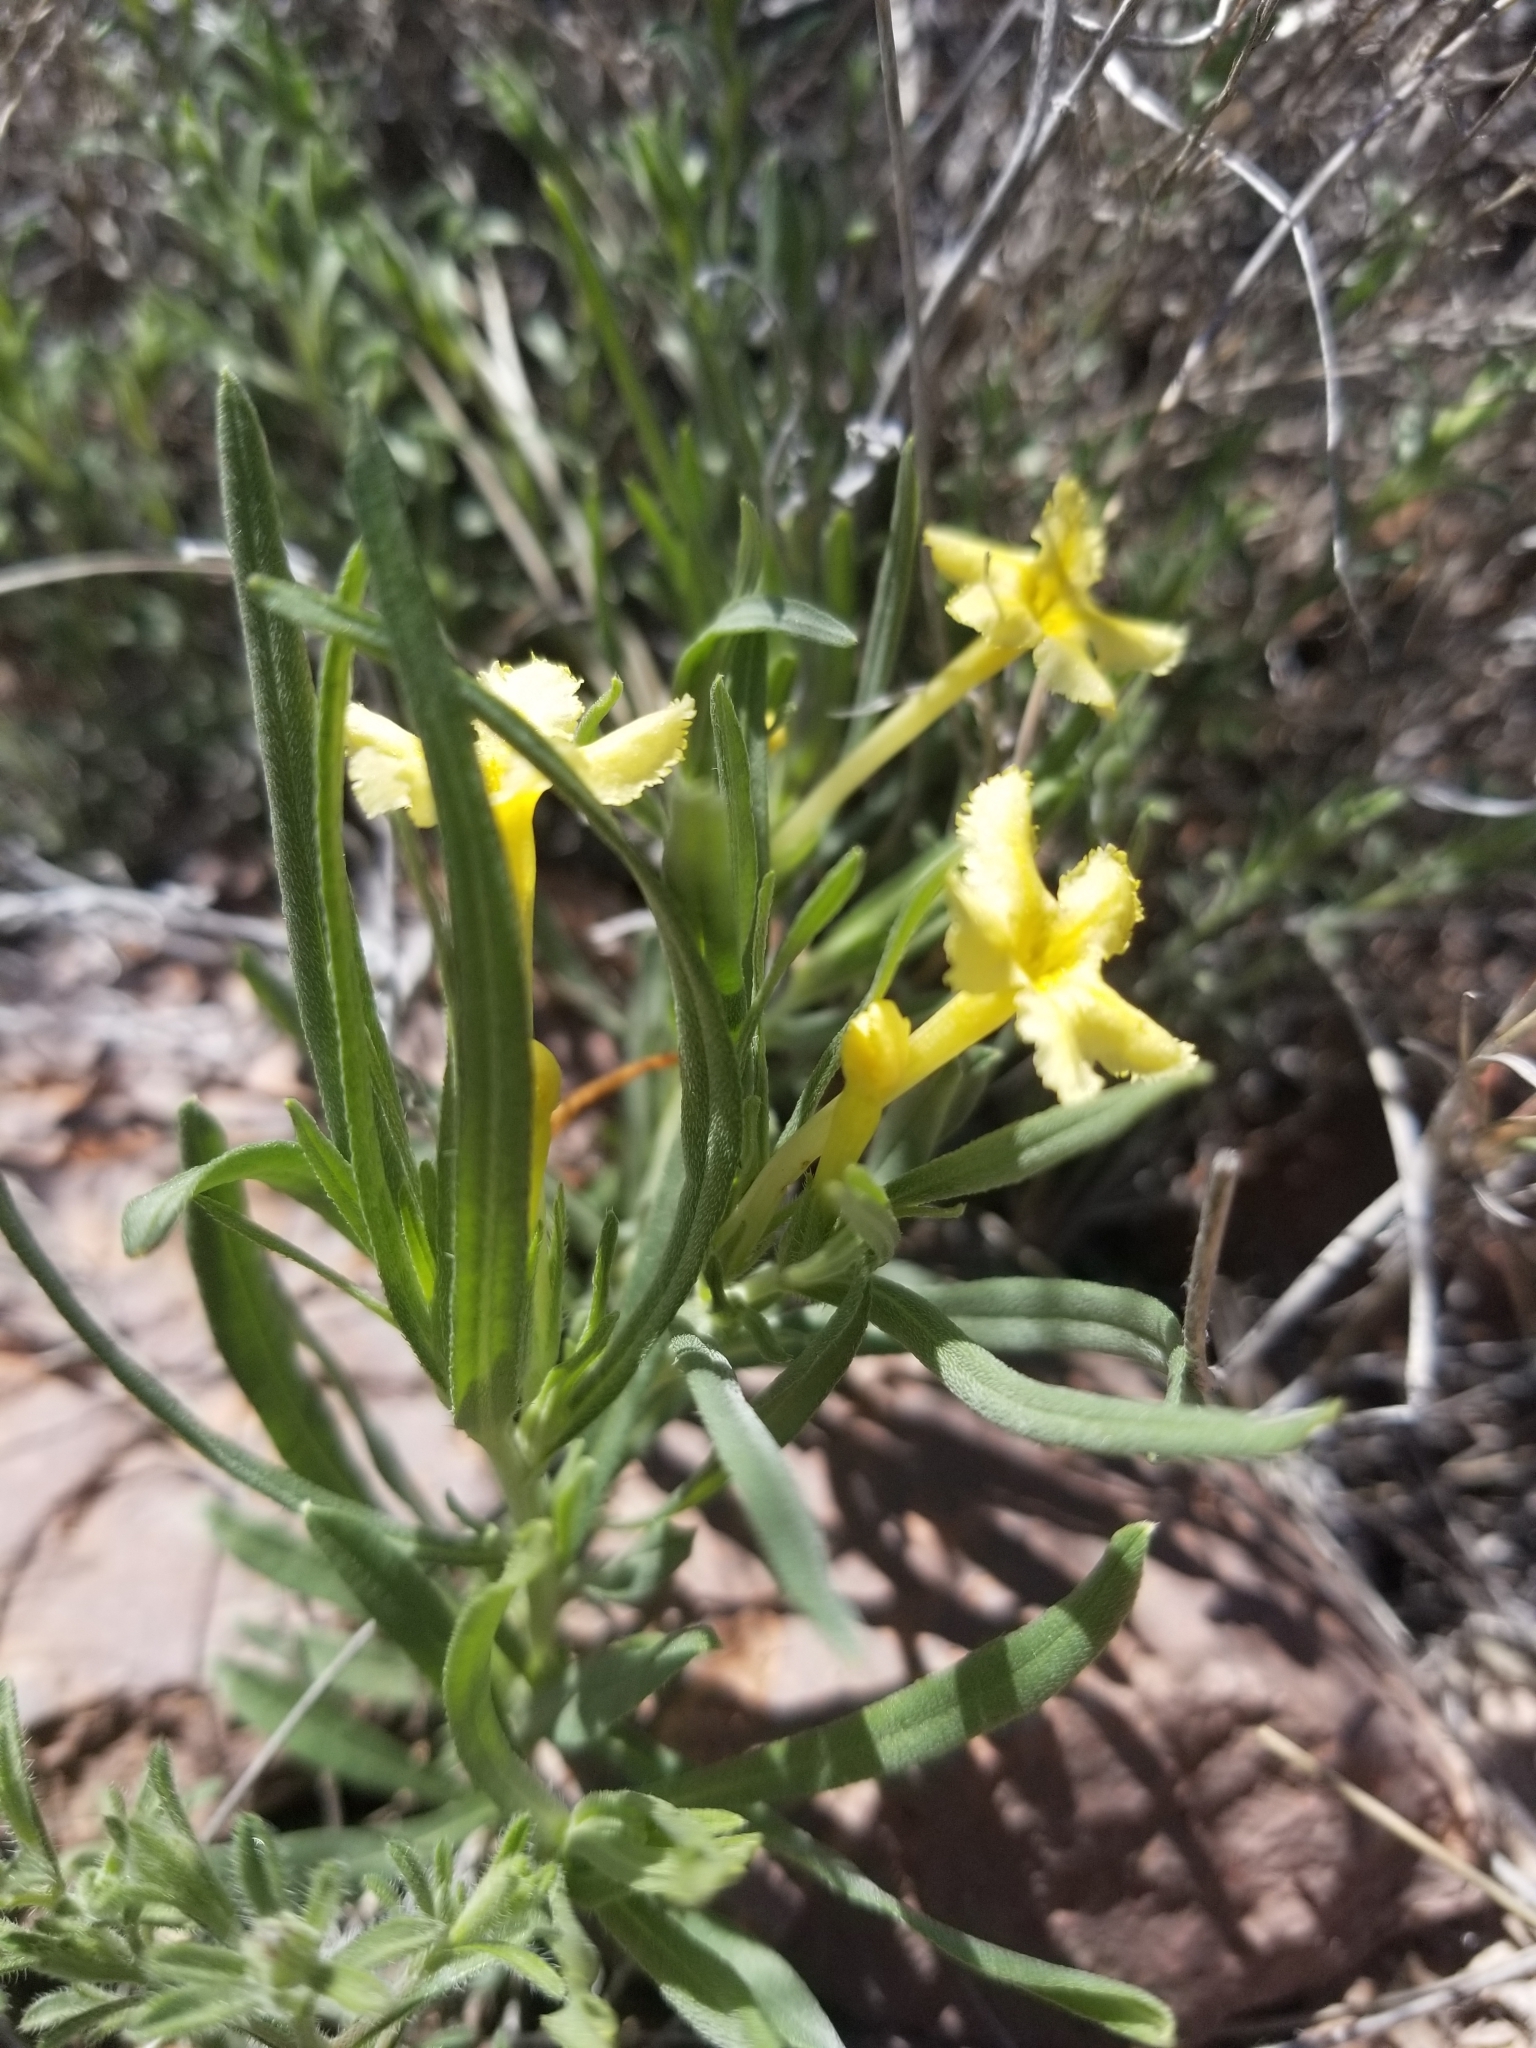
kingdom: Plantae
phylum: Tracheophyta
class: Magnoliopsida
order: Boraginales
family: Boraginaceae
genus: Lithospermum
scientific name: Lithospermum incisum
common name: Fringed gromwell
